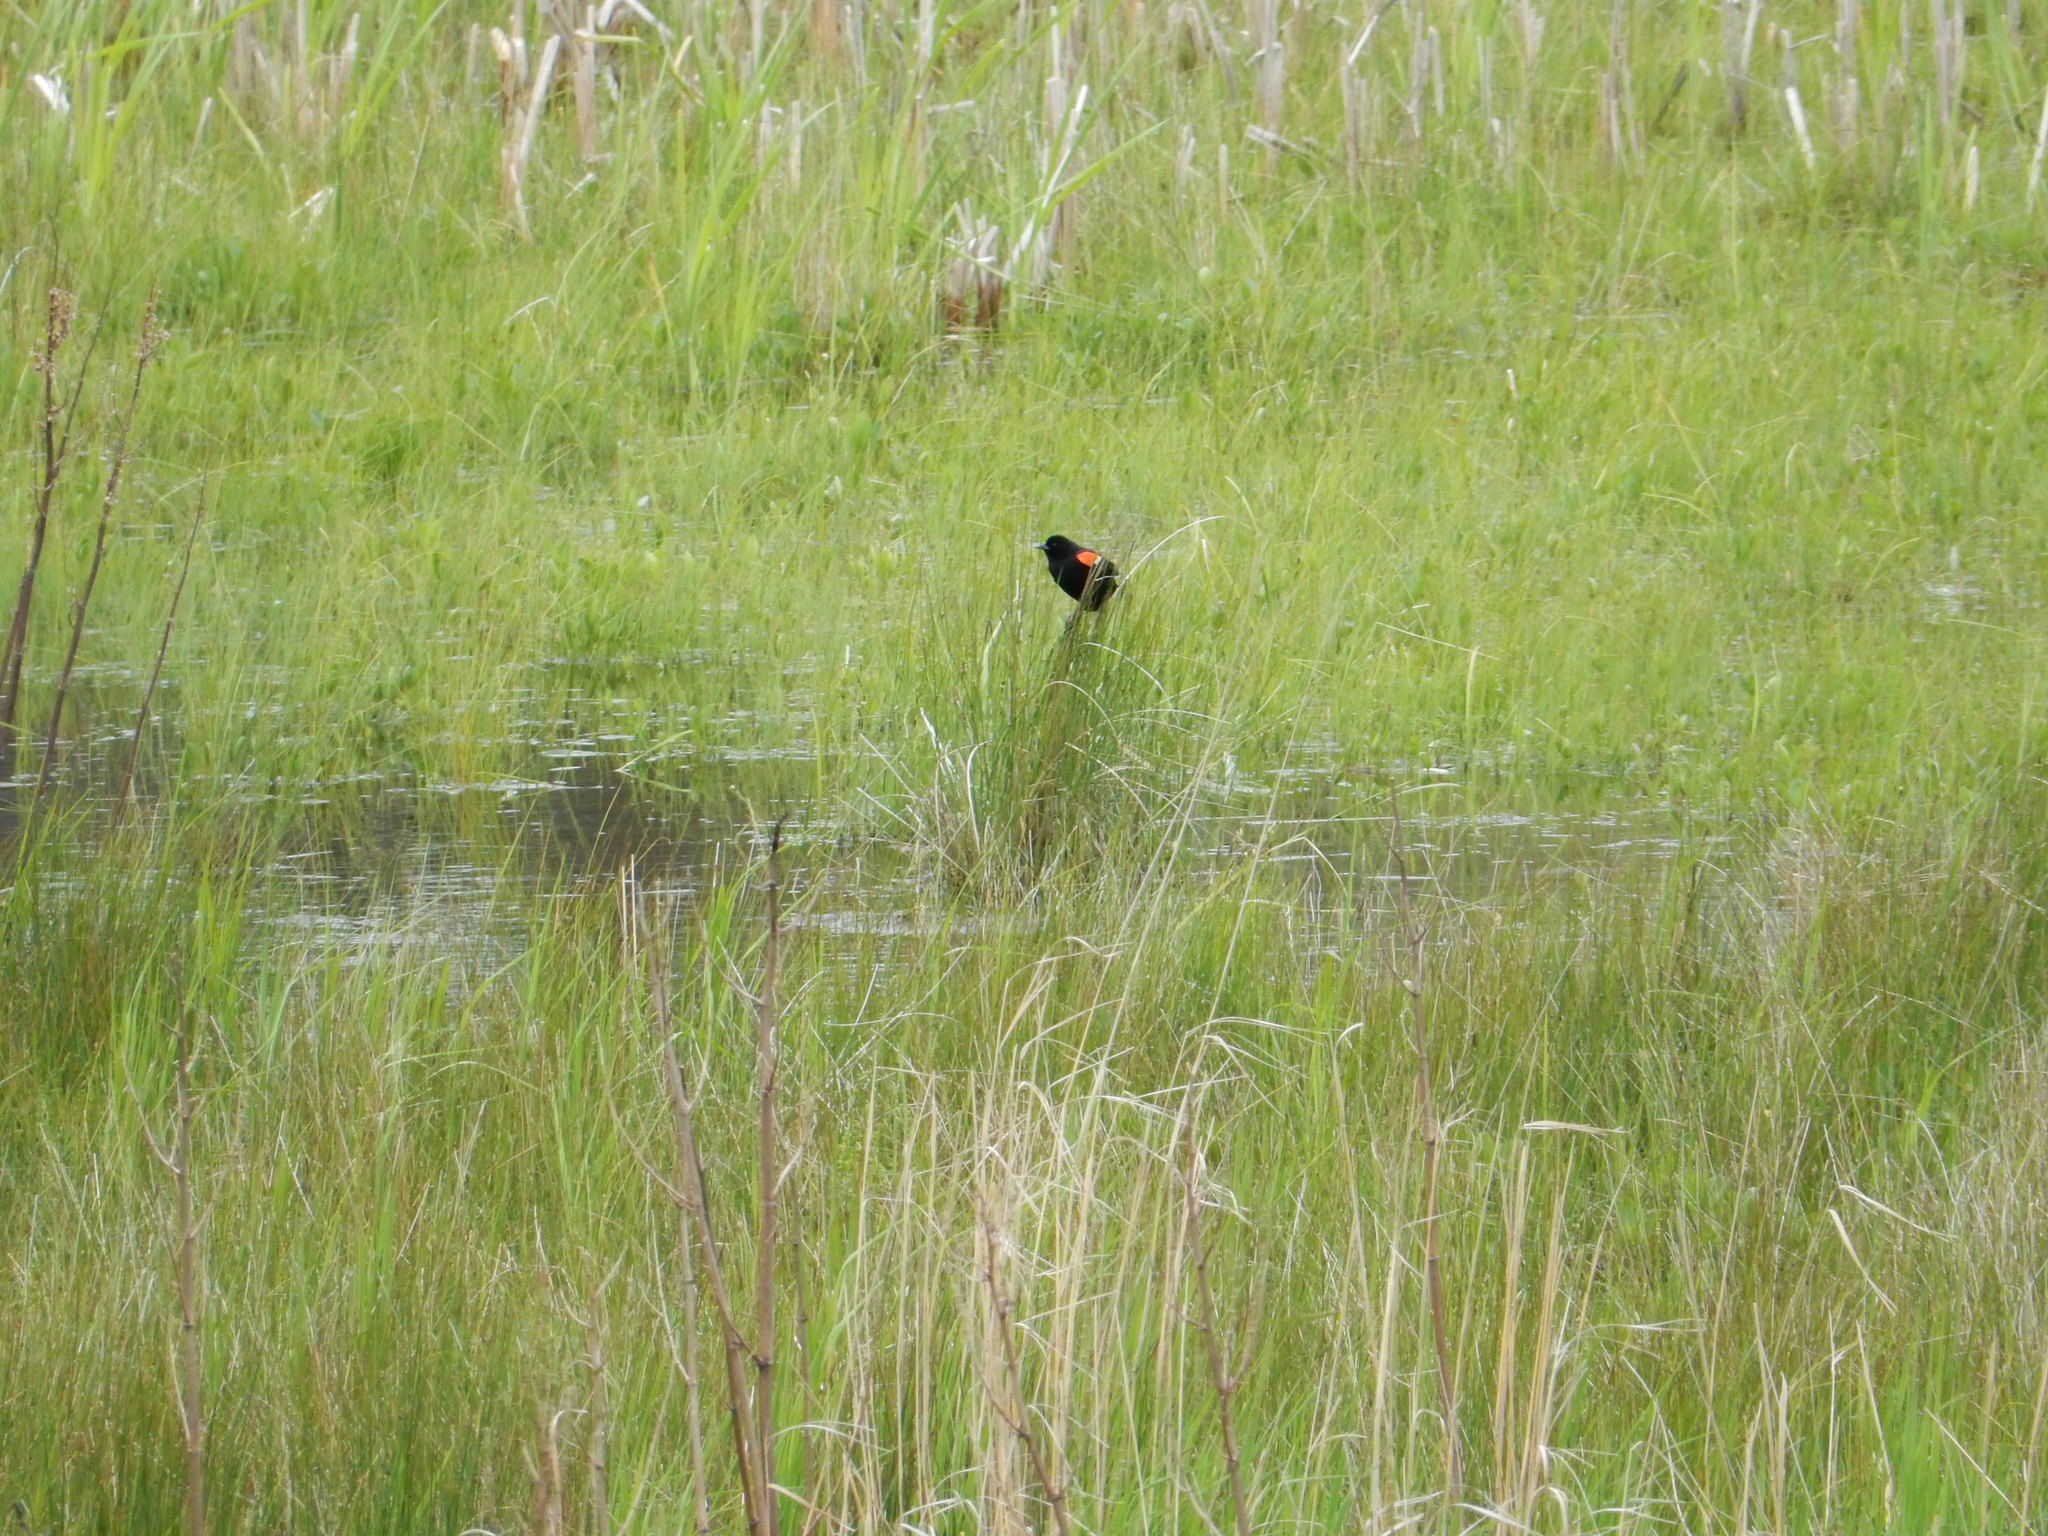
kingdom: Animalia
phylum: Chordata
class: Aves
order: Passeriformes
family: Icteridae
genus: Agelaius
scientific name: Agelaius phoeniceus
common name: Red-winged blackbird
